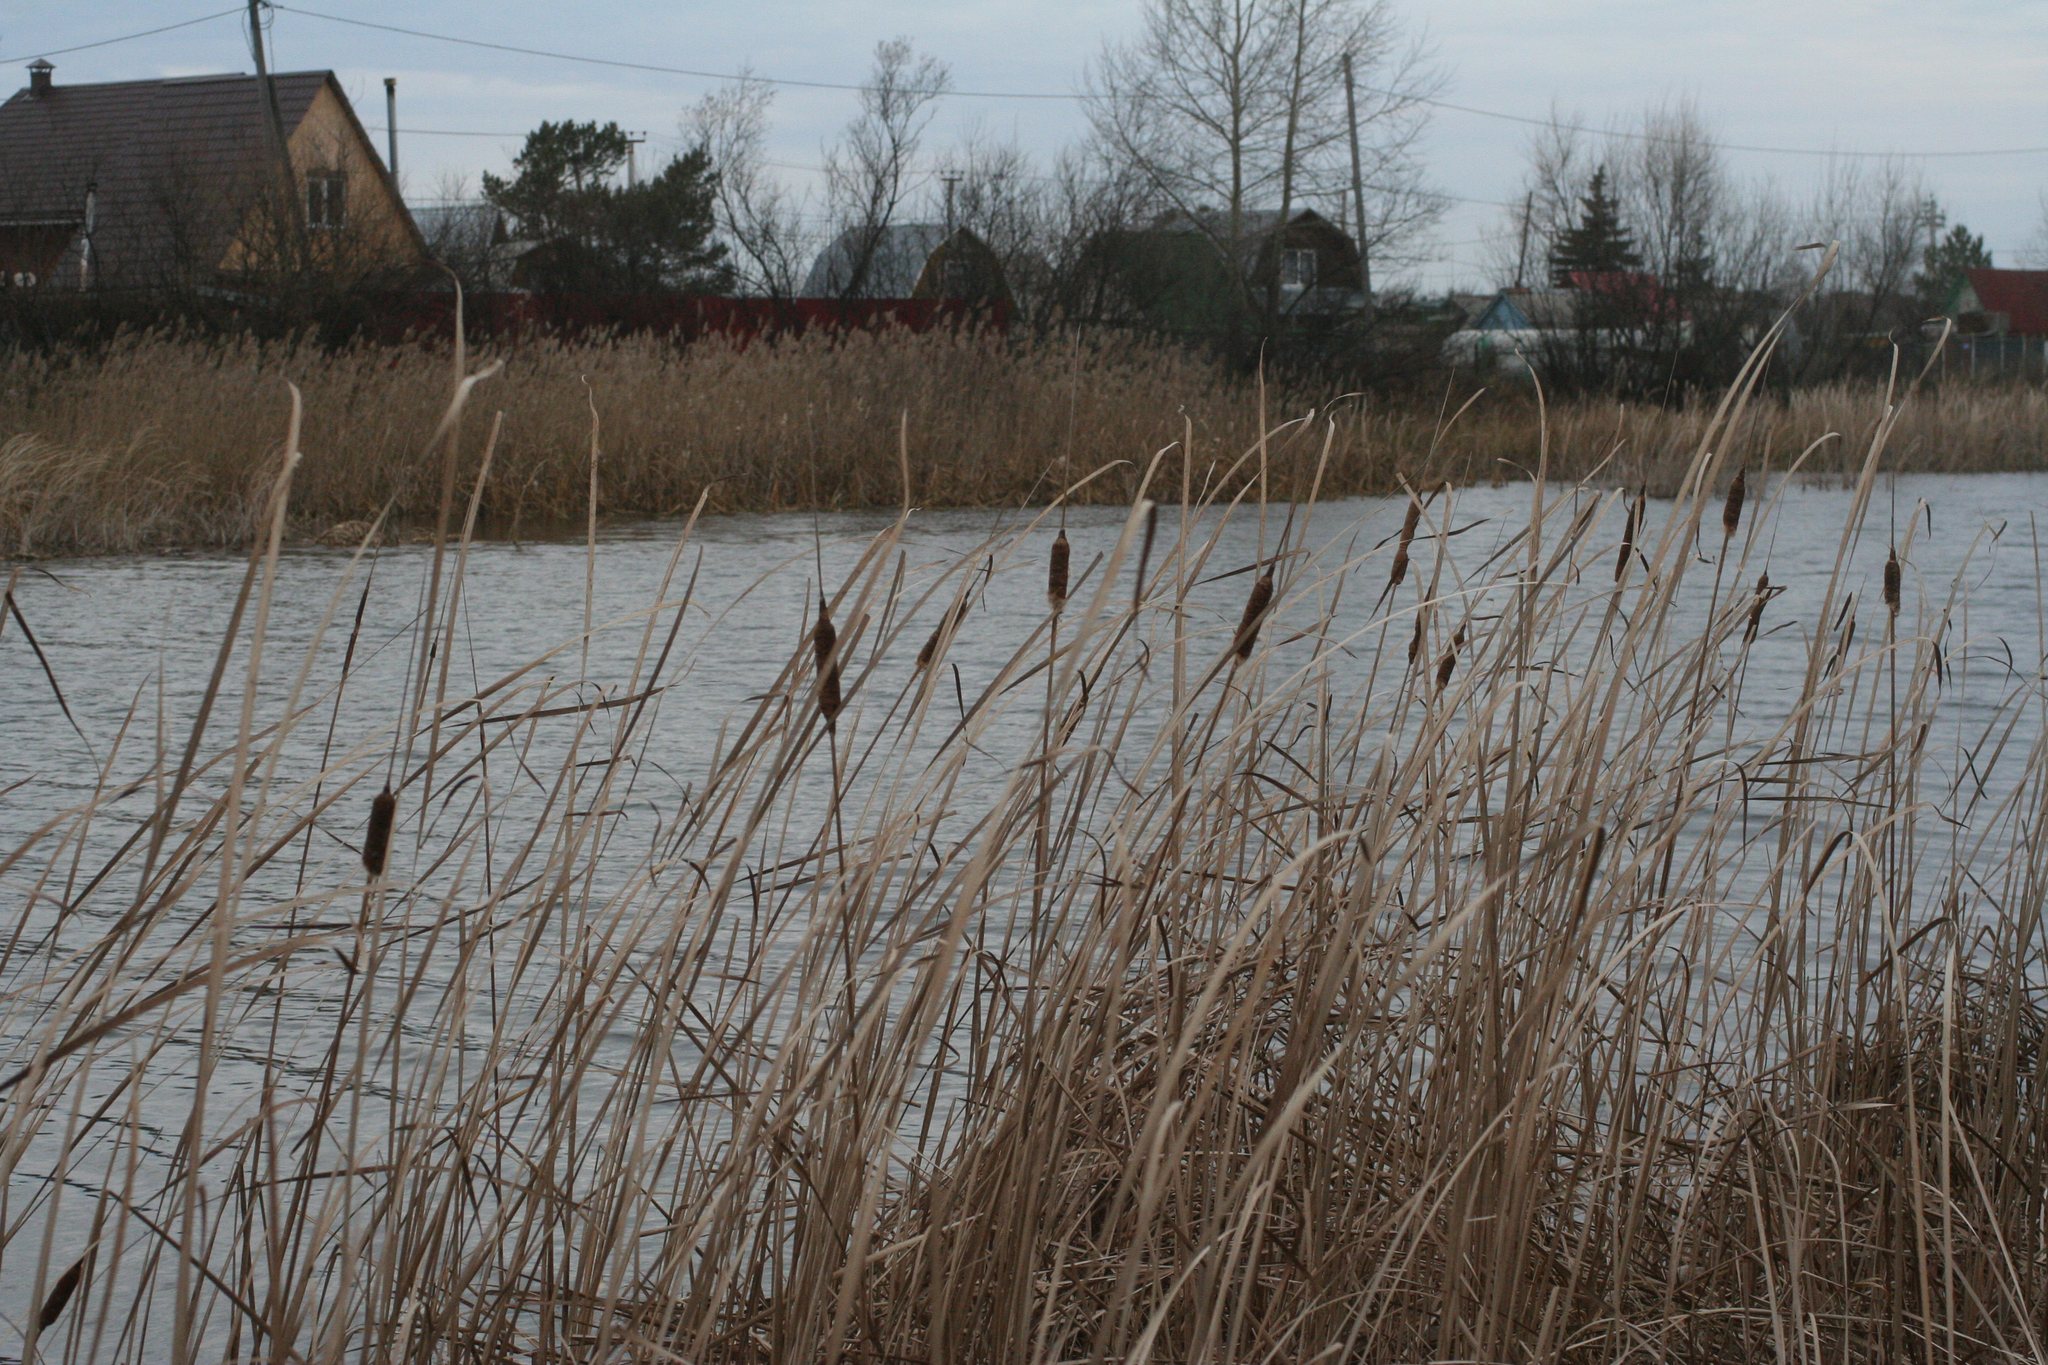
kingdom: Plantae
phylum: Tracheophyta
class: Liliopsida
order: Poales
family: Typhaceae
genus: Typha
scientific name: Typha angustifolia
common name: Lesser bulrush
